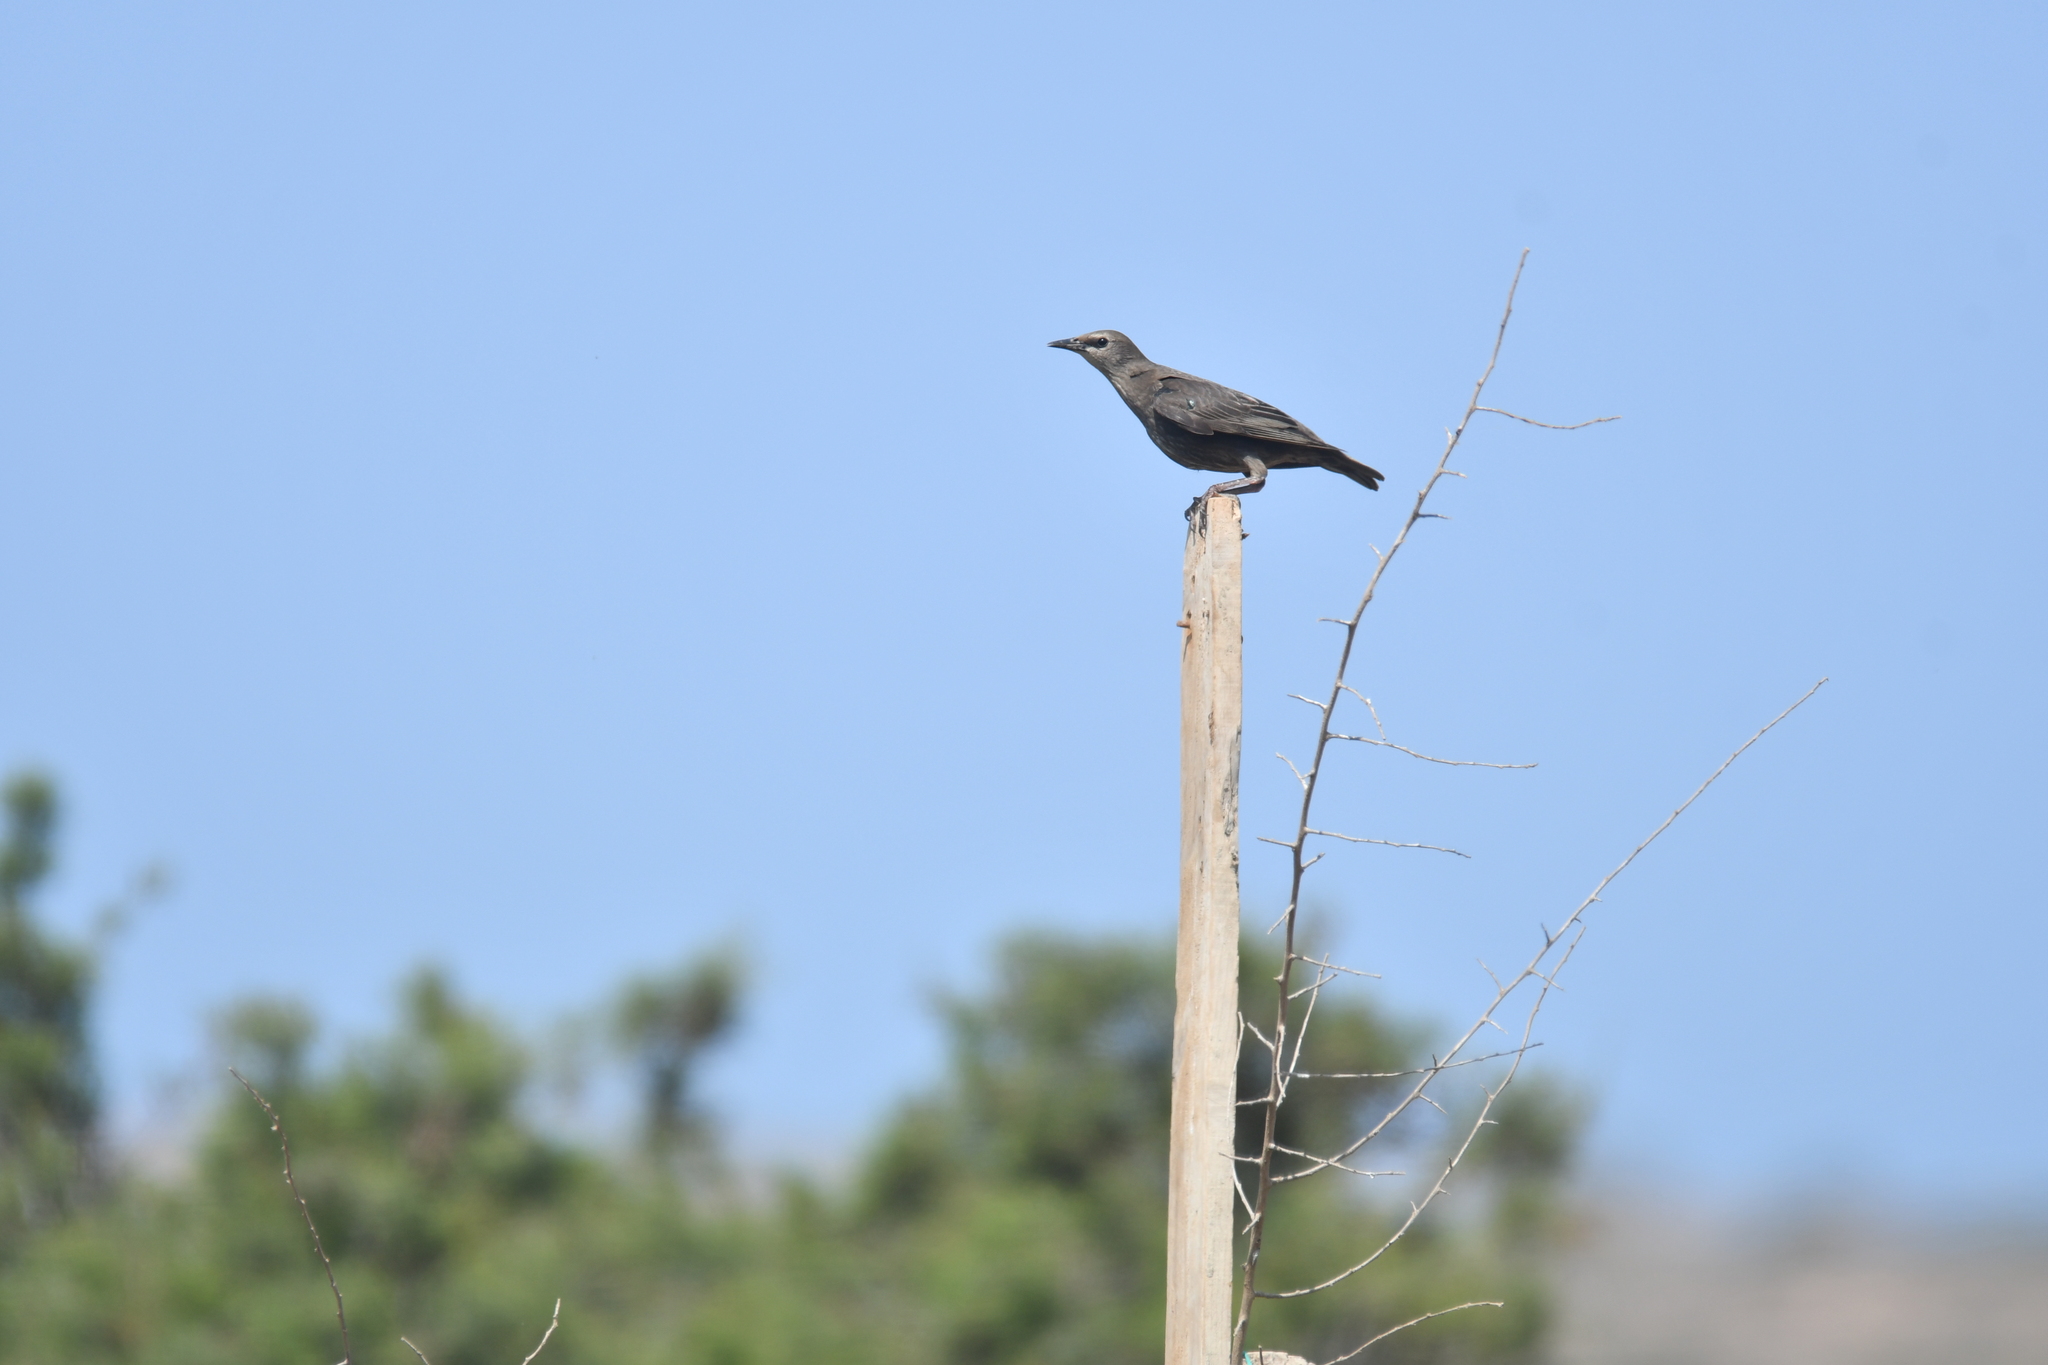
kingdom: Animalia
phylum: Chordata
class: Aves
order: Passeriformes
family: Sturnidae
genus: Sturnus
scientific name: Sturnus unicolor
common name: Spotless starling
